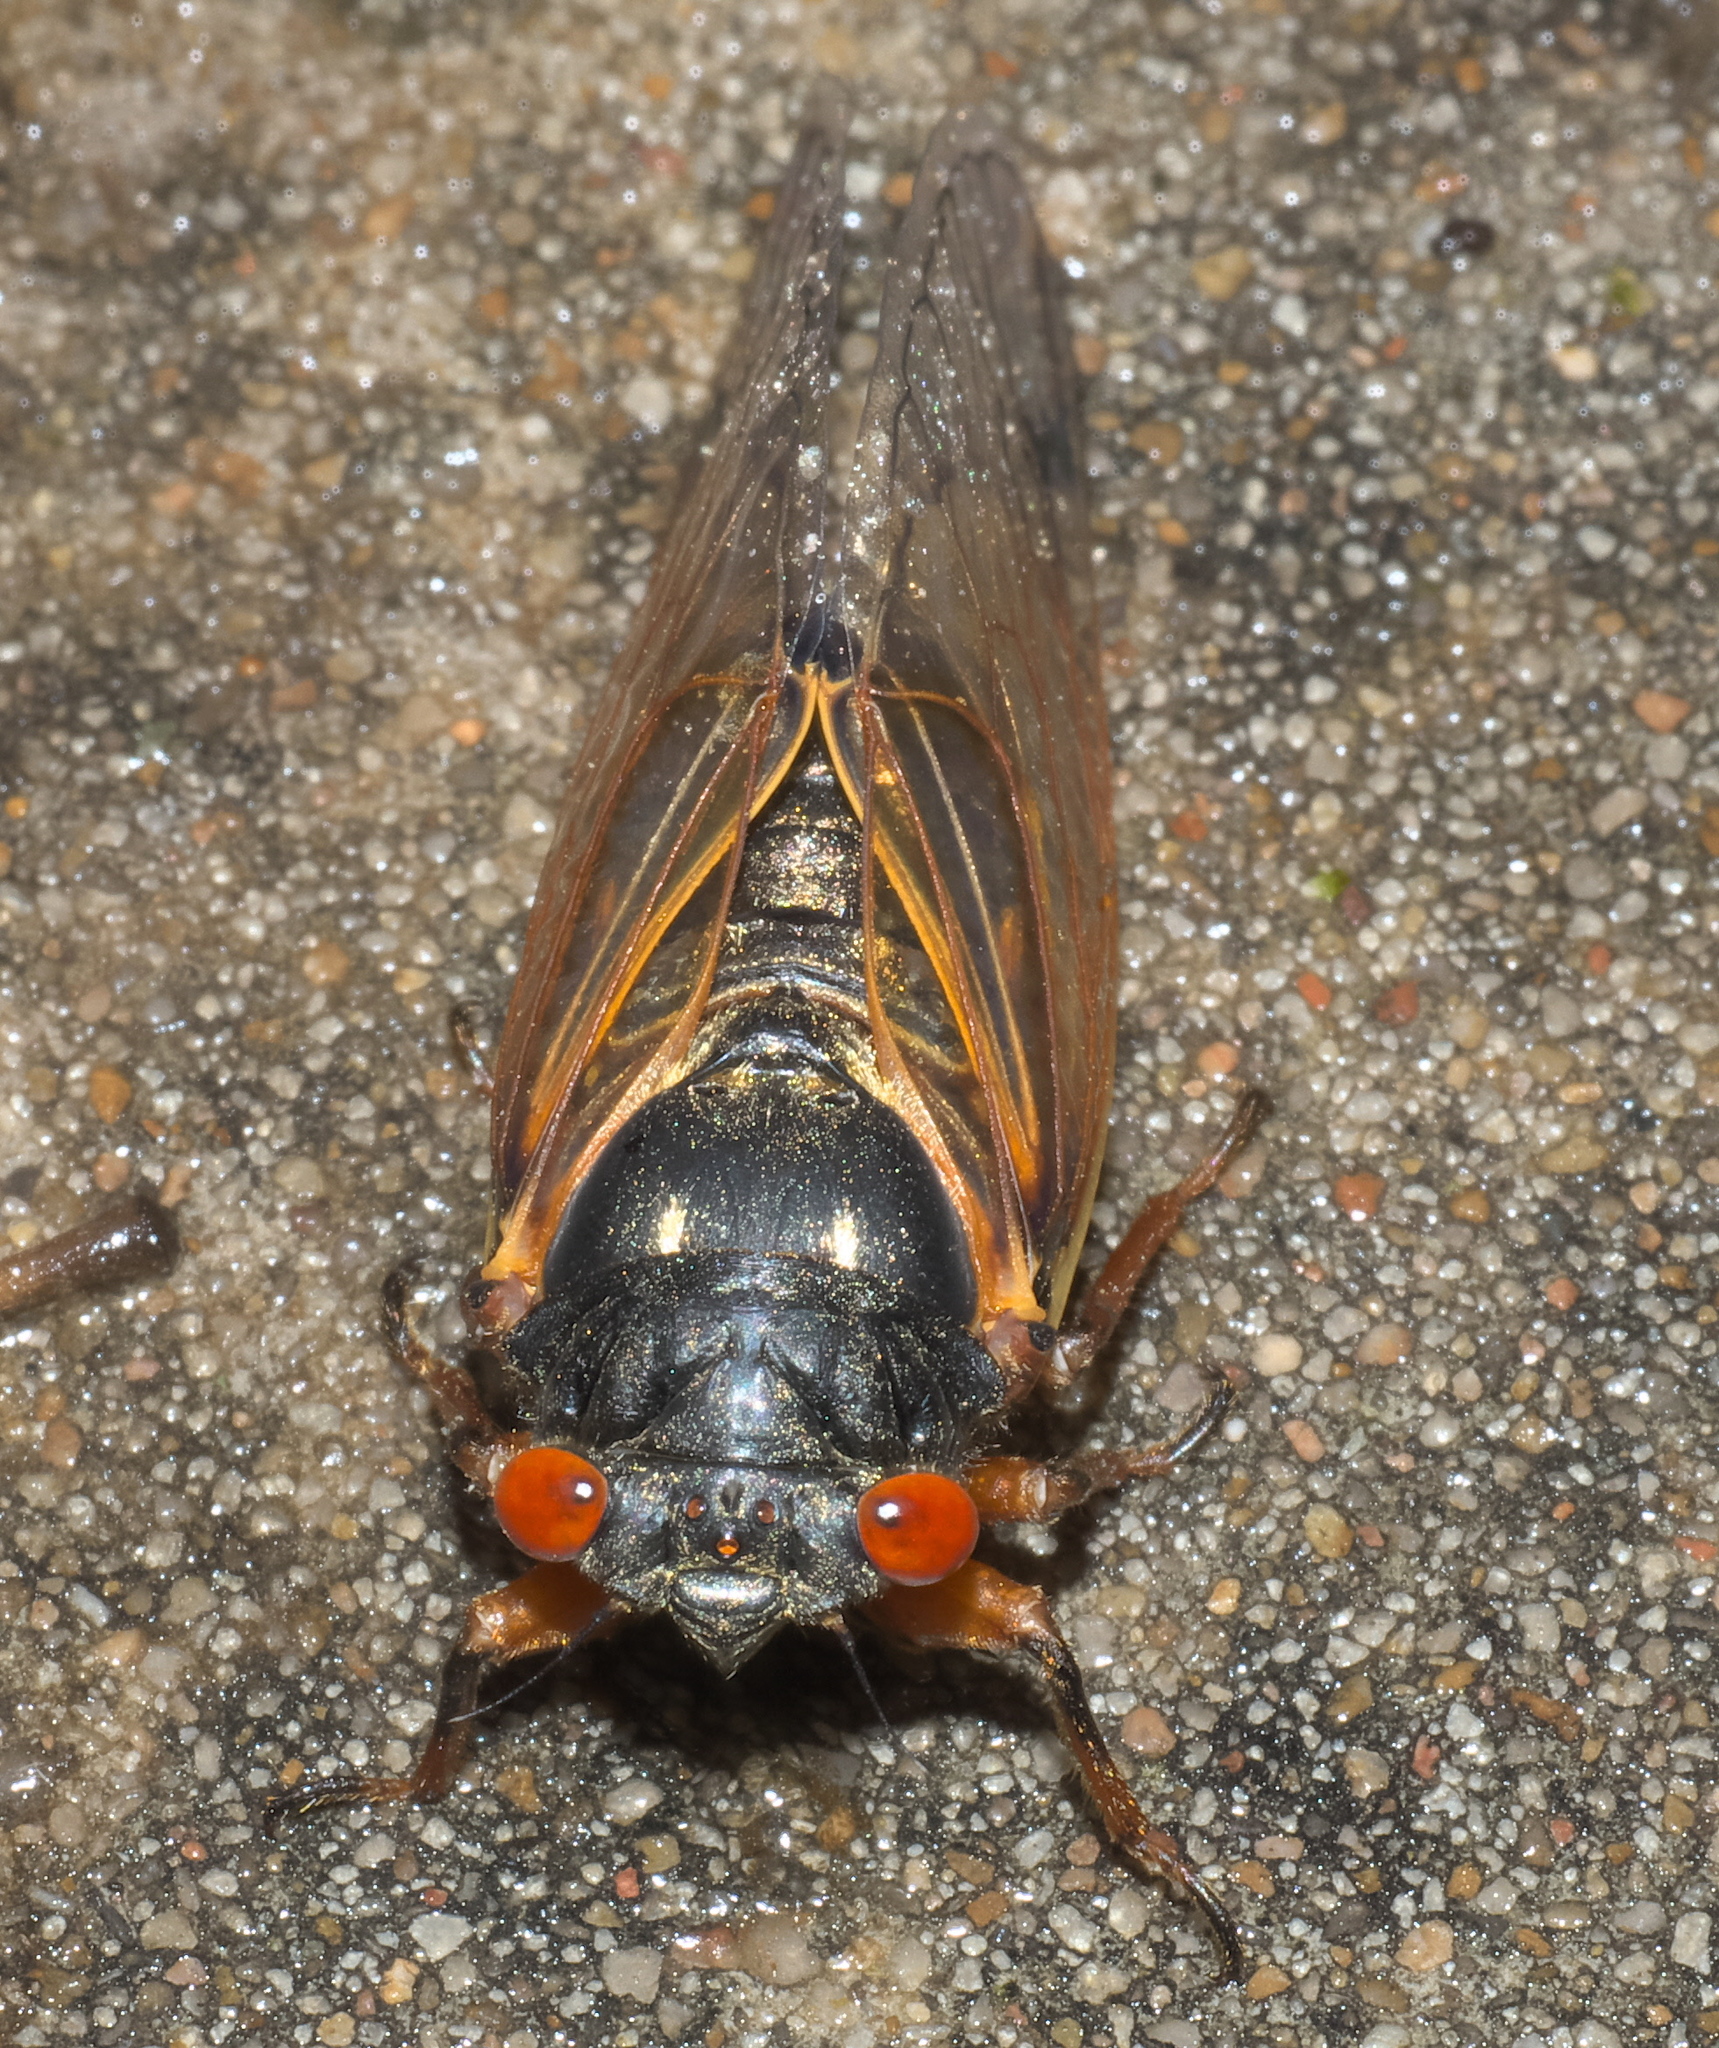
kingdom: Animalia
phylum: Arthropoda
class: Insecta
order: Hemiptera
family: Cicadidae
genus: Magicicada
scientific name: Magicicada
